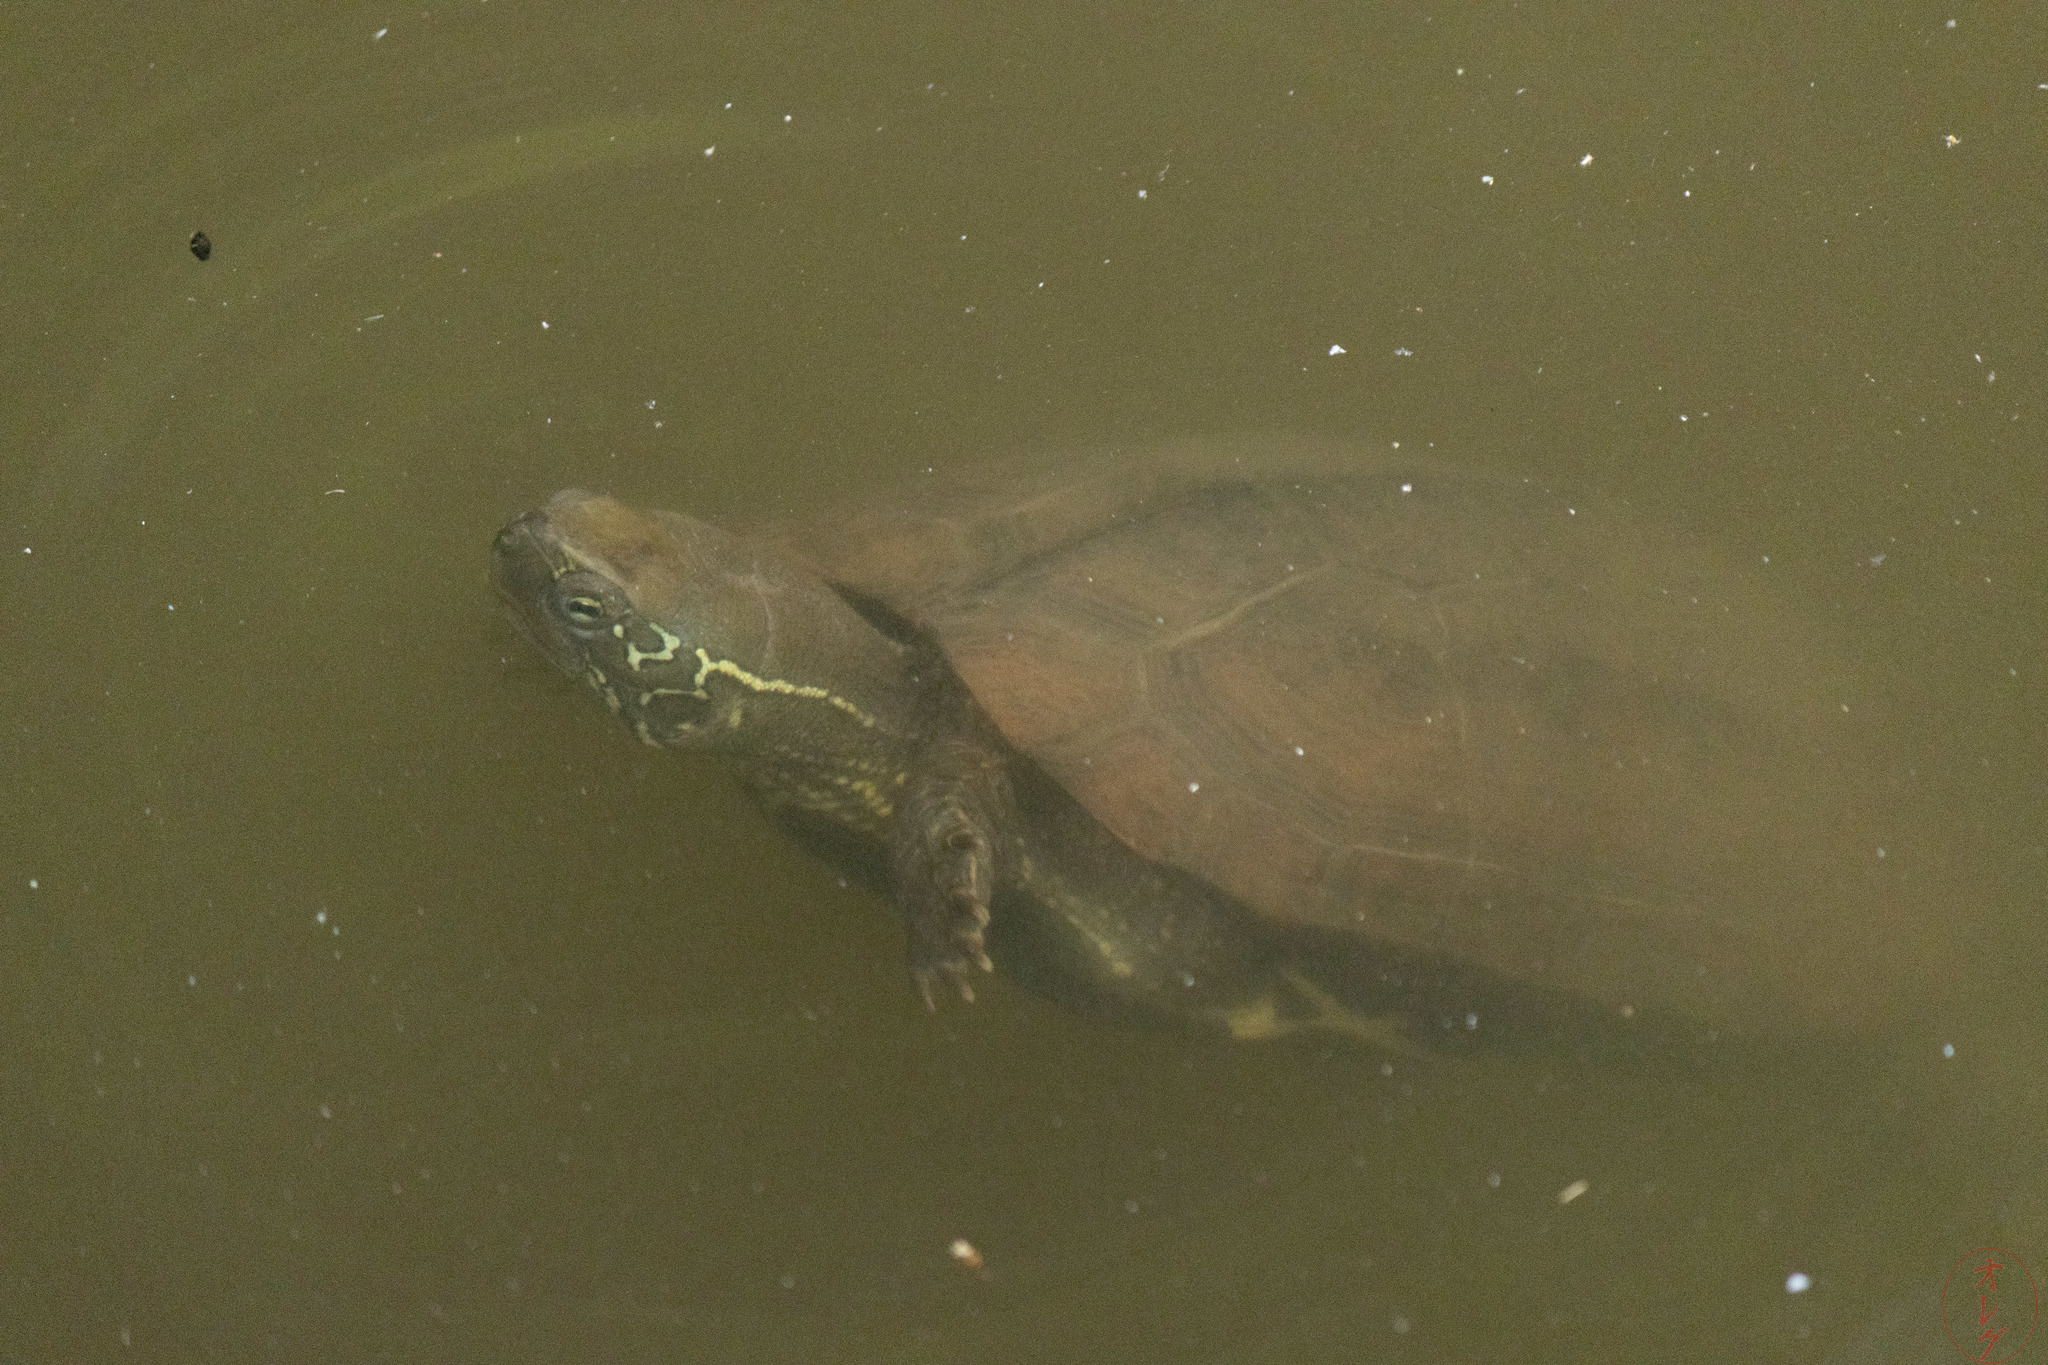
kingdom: Animalia
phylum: Chordata
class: Testudines
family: Geoemydidae
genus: Mauremys
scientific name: Mauremys reevesii
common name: Chinese pond turtle
